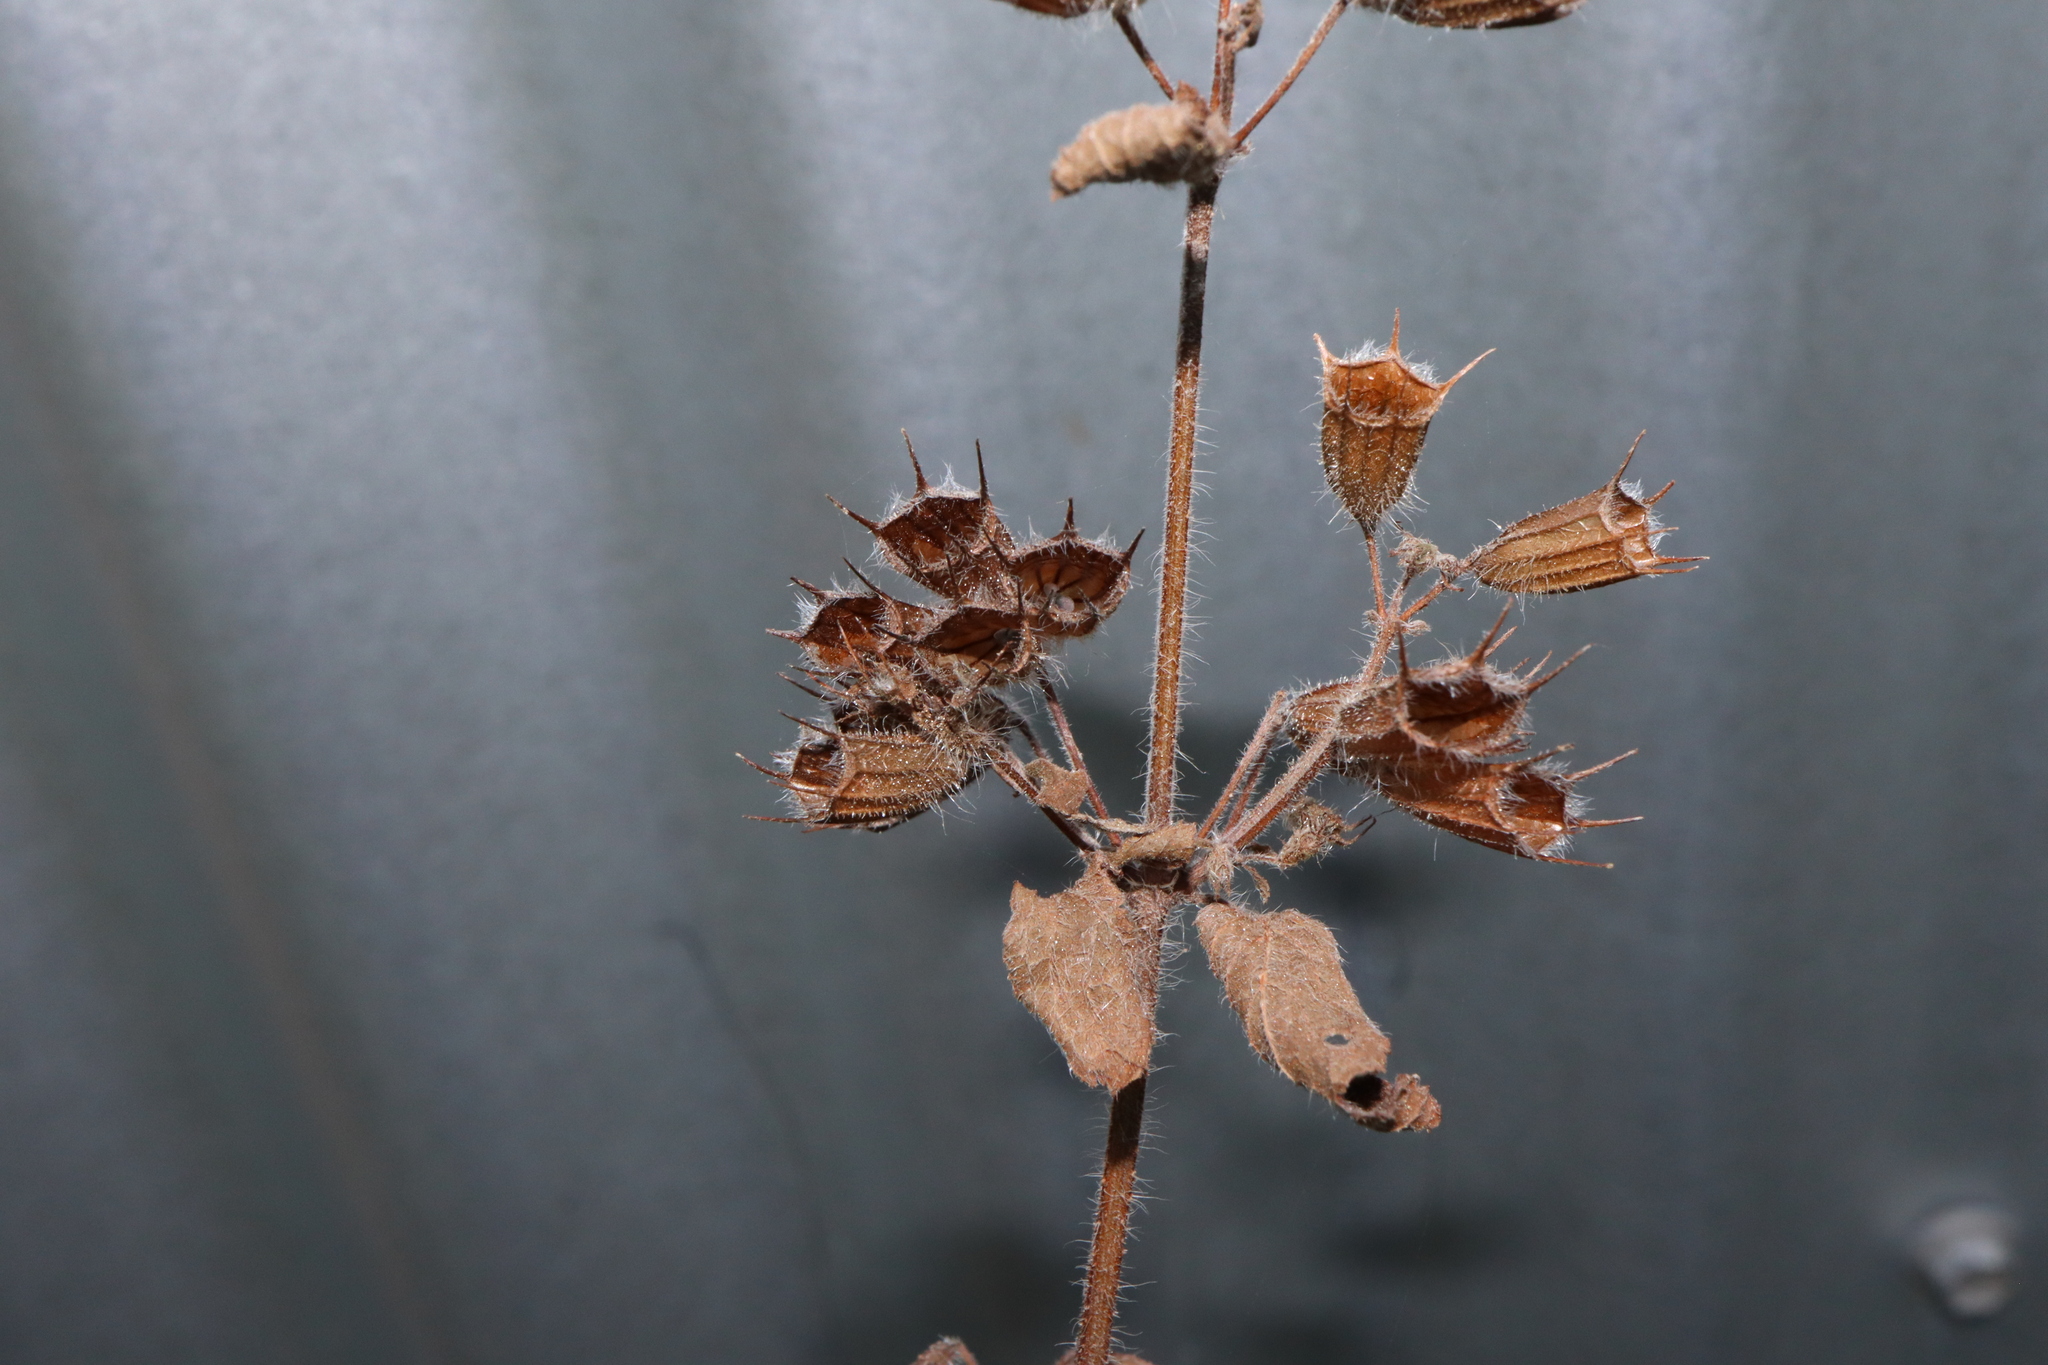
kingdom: Plantae
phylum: Tracheophyta
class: Magnoliopsida
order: Lamiales
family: Lamiaceae
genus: Mesosphaerum
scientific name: Mesosphaerum suaveolens
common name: Pignut
